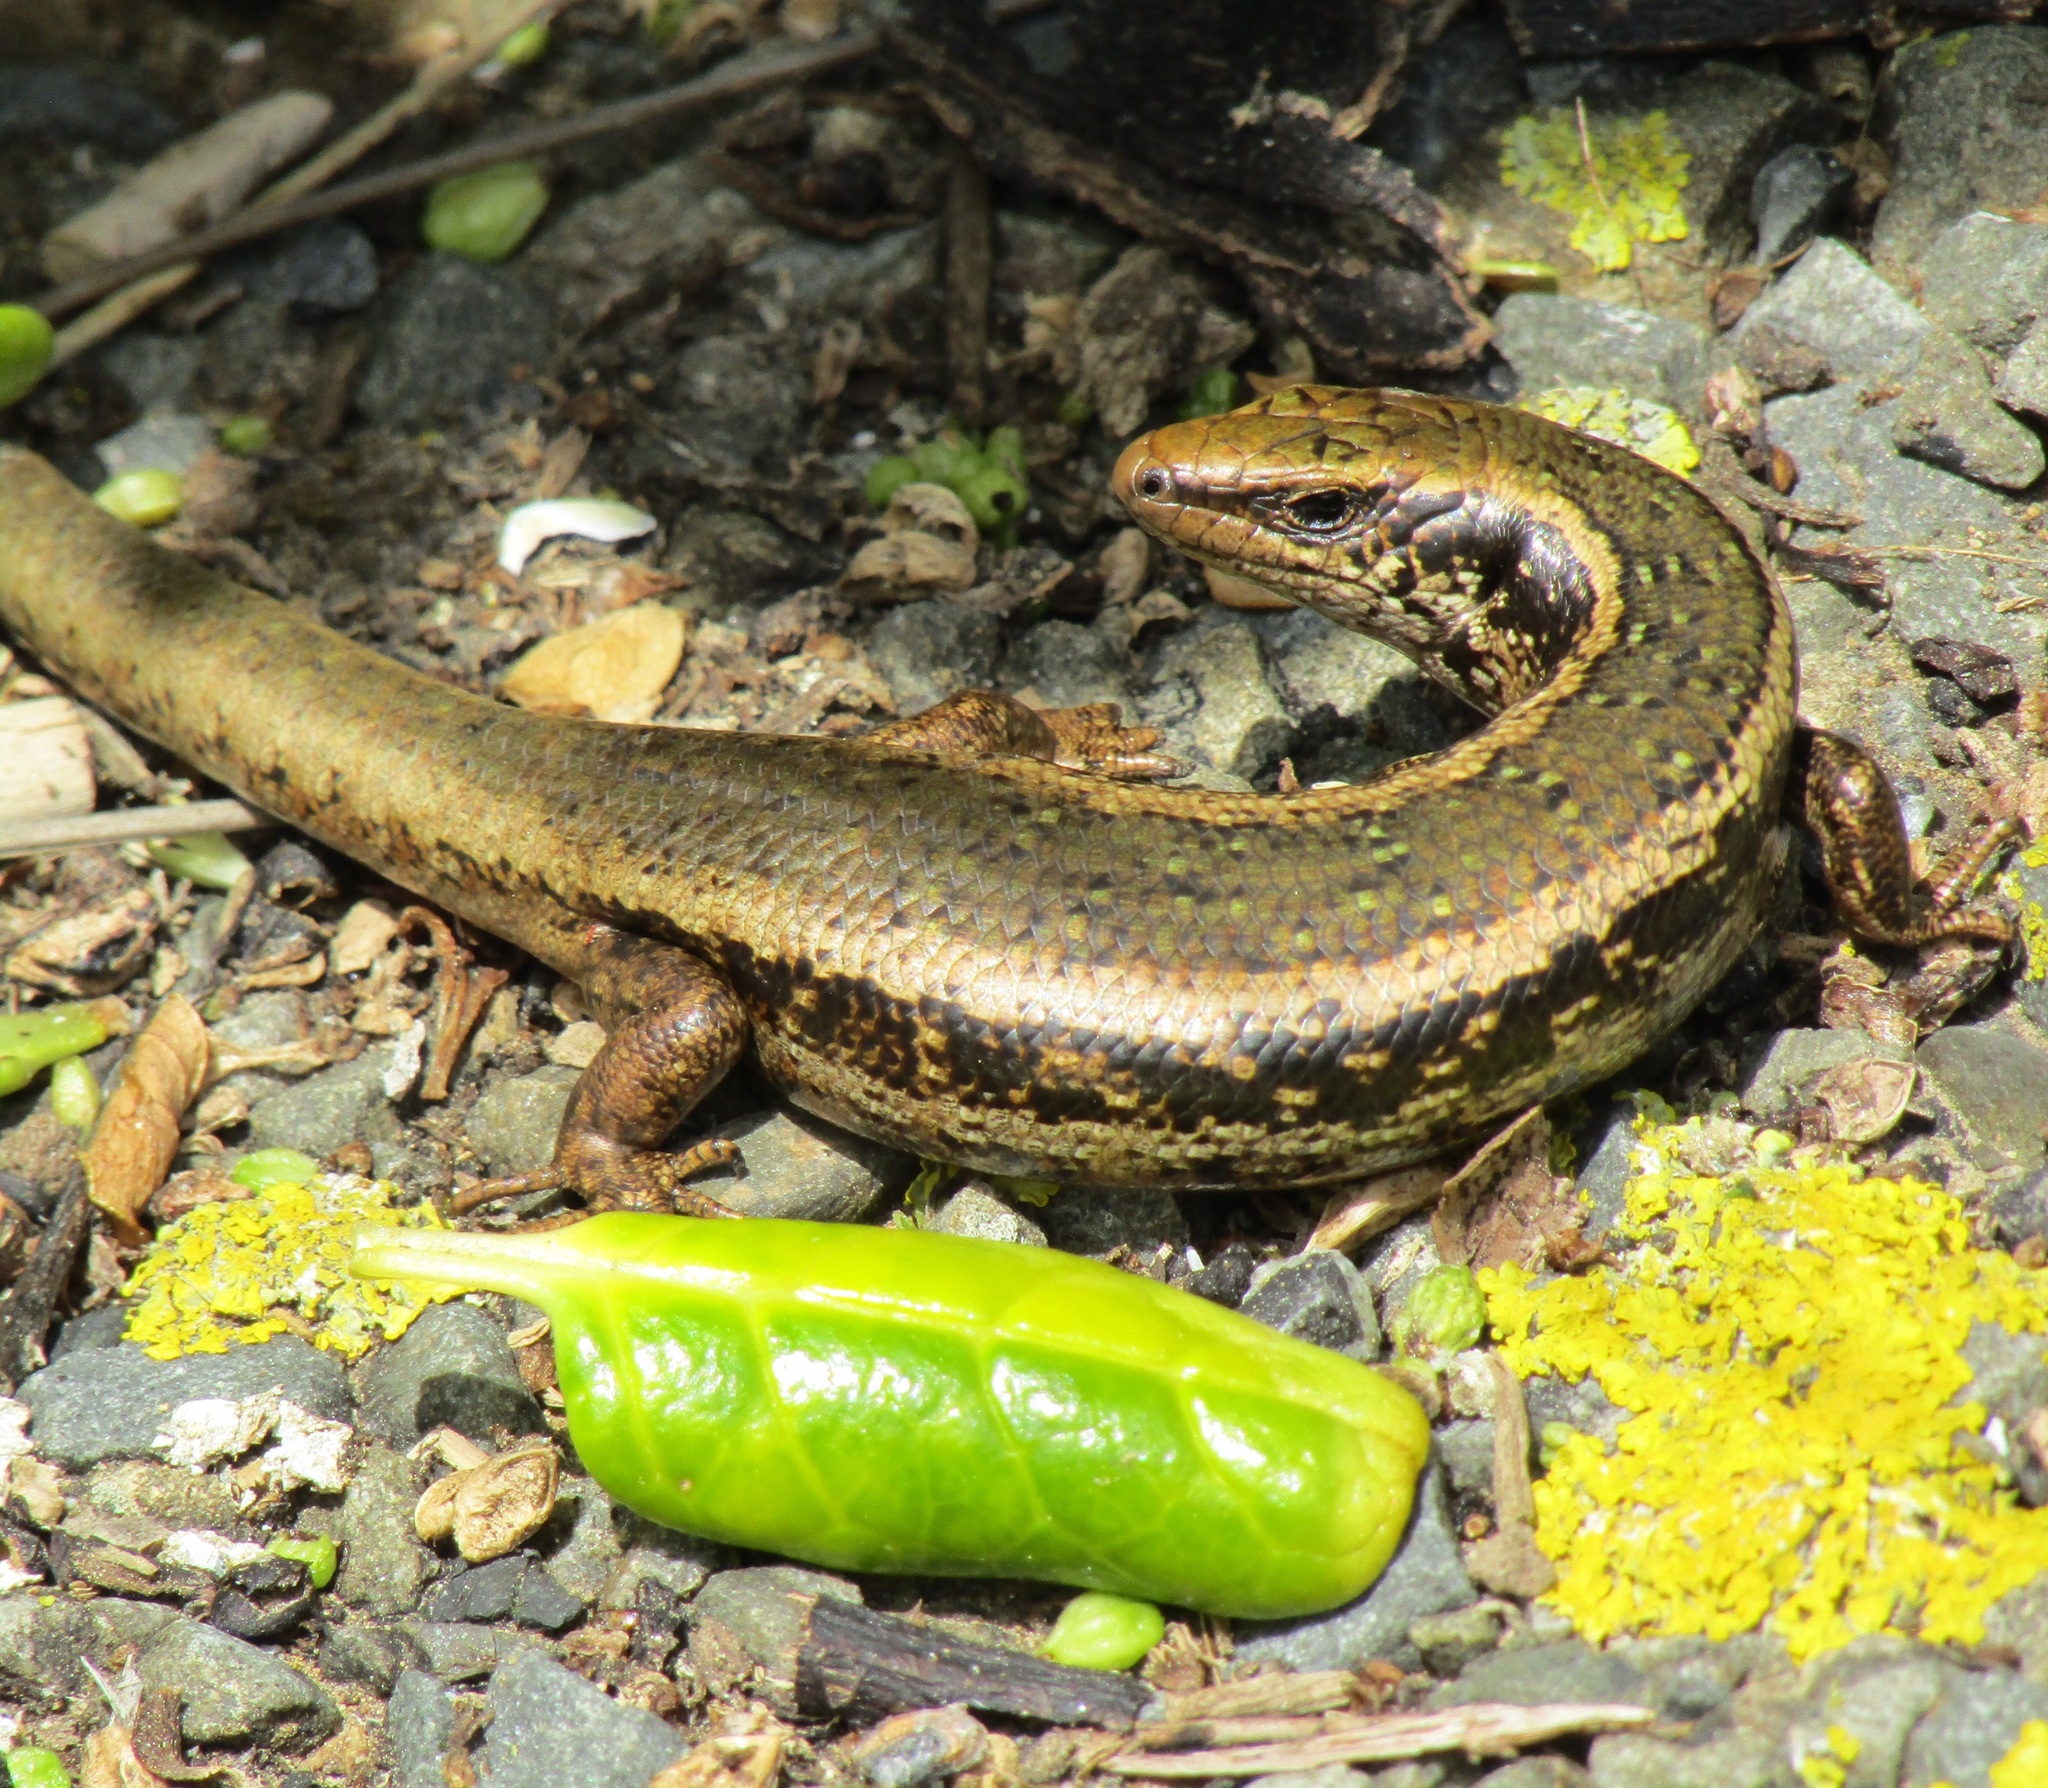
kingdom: Animalia
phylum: Chordata
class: Squamata
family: Scincidae
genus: Oligosoma
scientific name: Oligosoma kokowai
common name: Northern spotted skink
